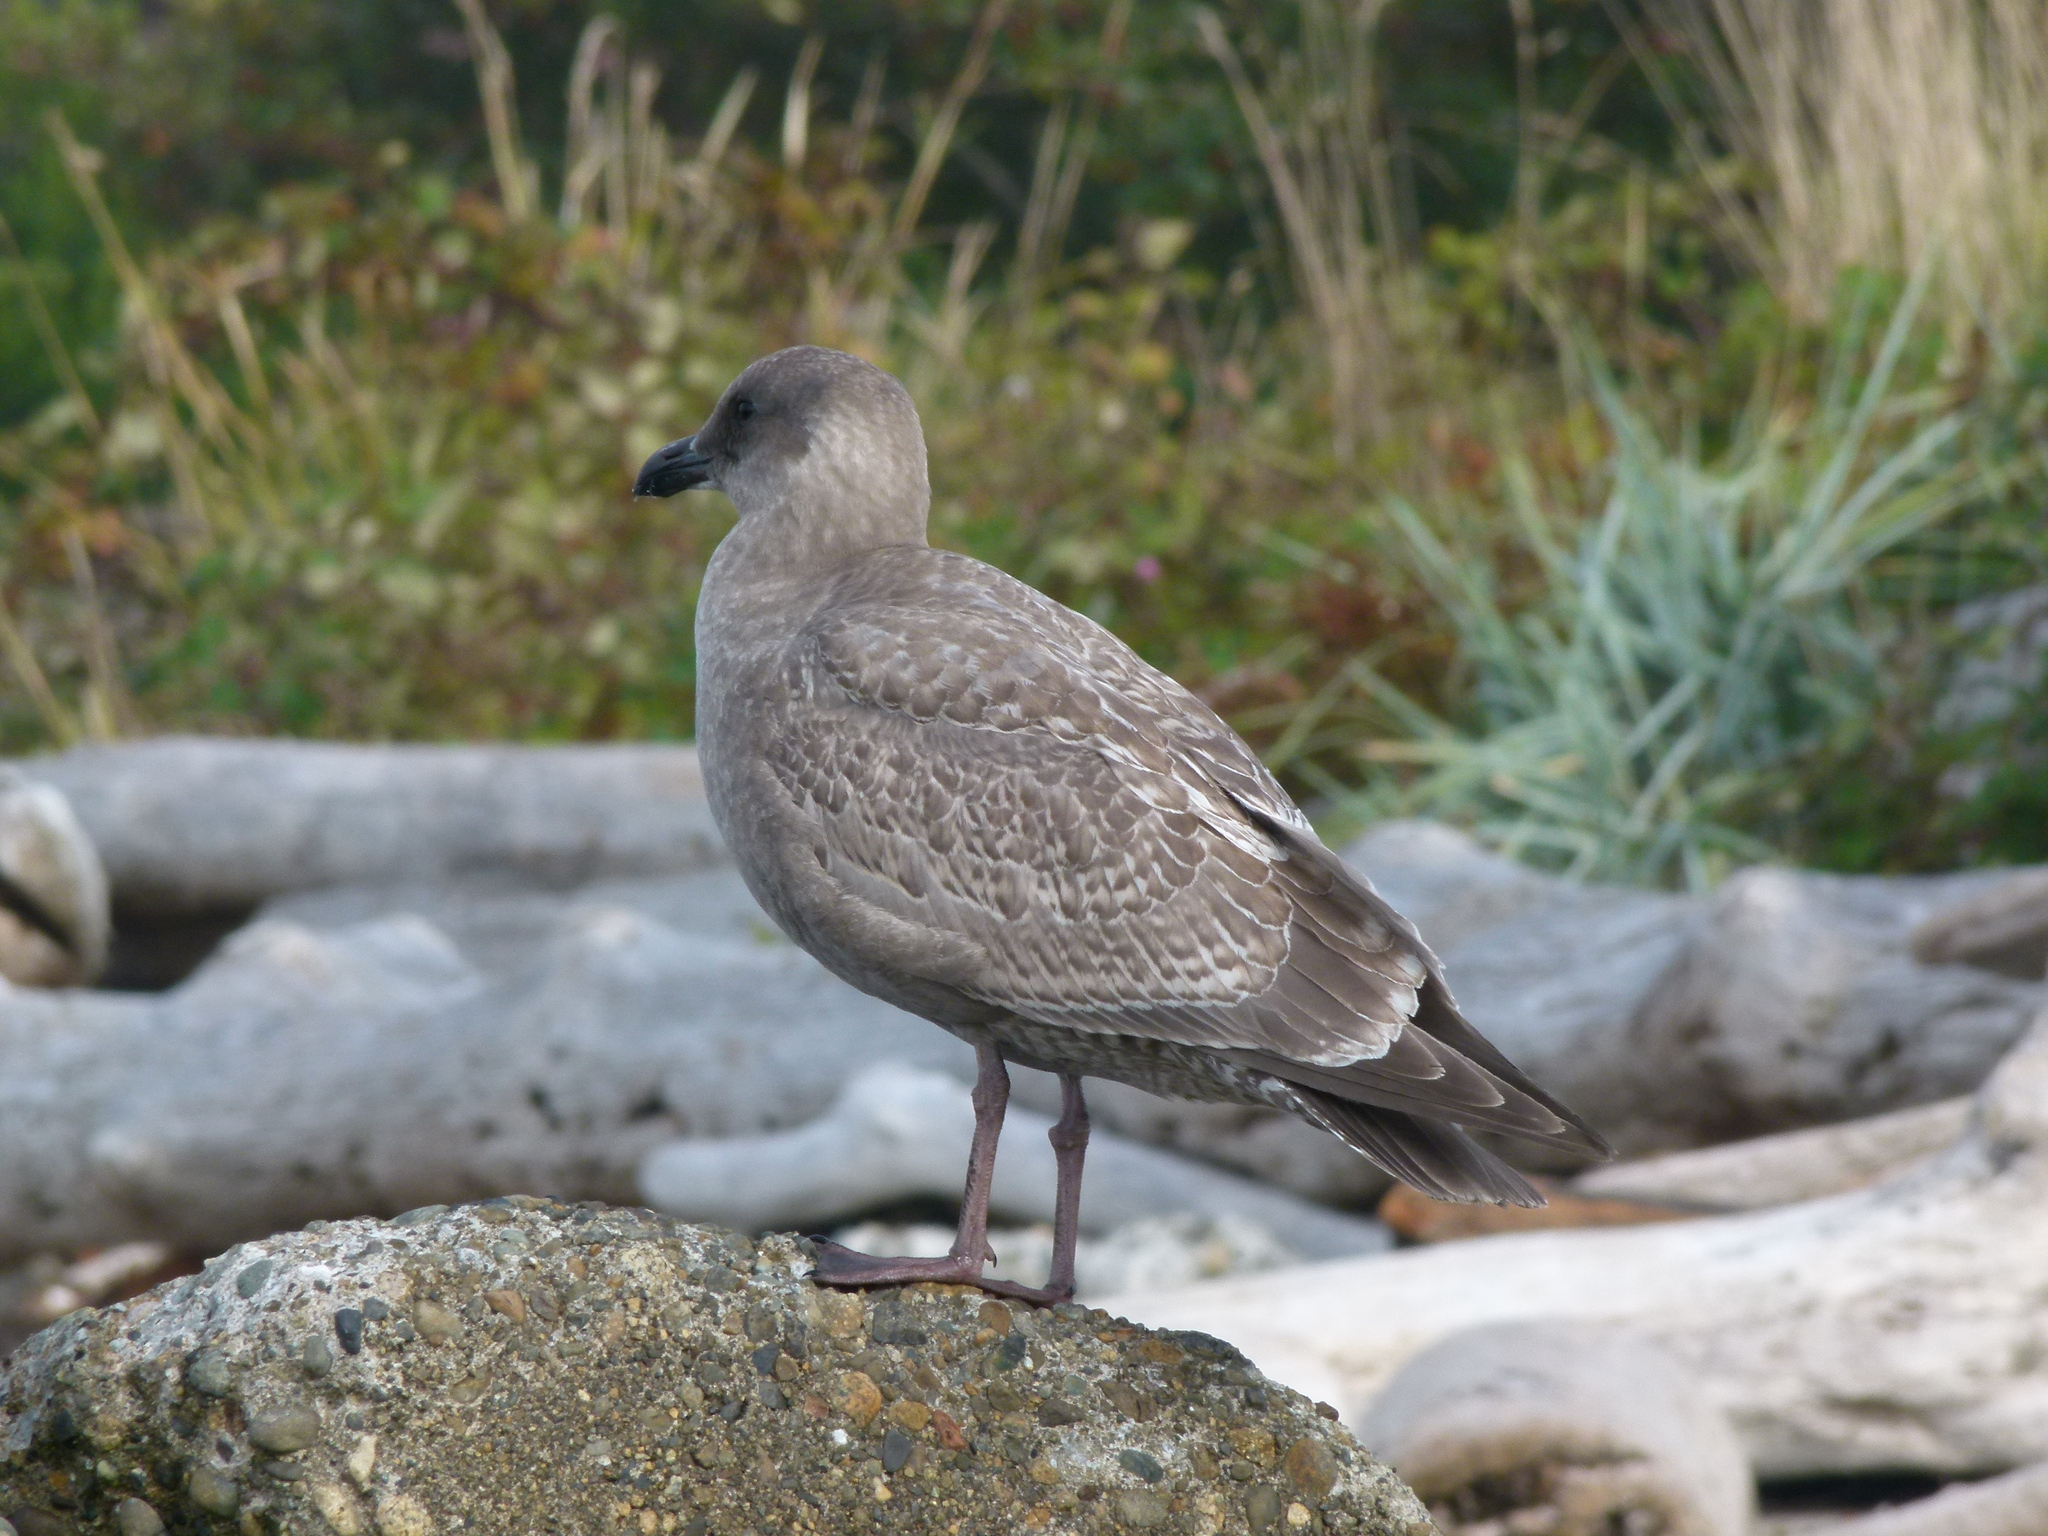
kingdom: Animalia
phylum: Chordata
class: Aves
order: Charadriiformes
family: Laridae
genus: Larus
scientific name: Larus
